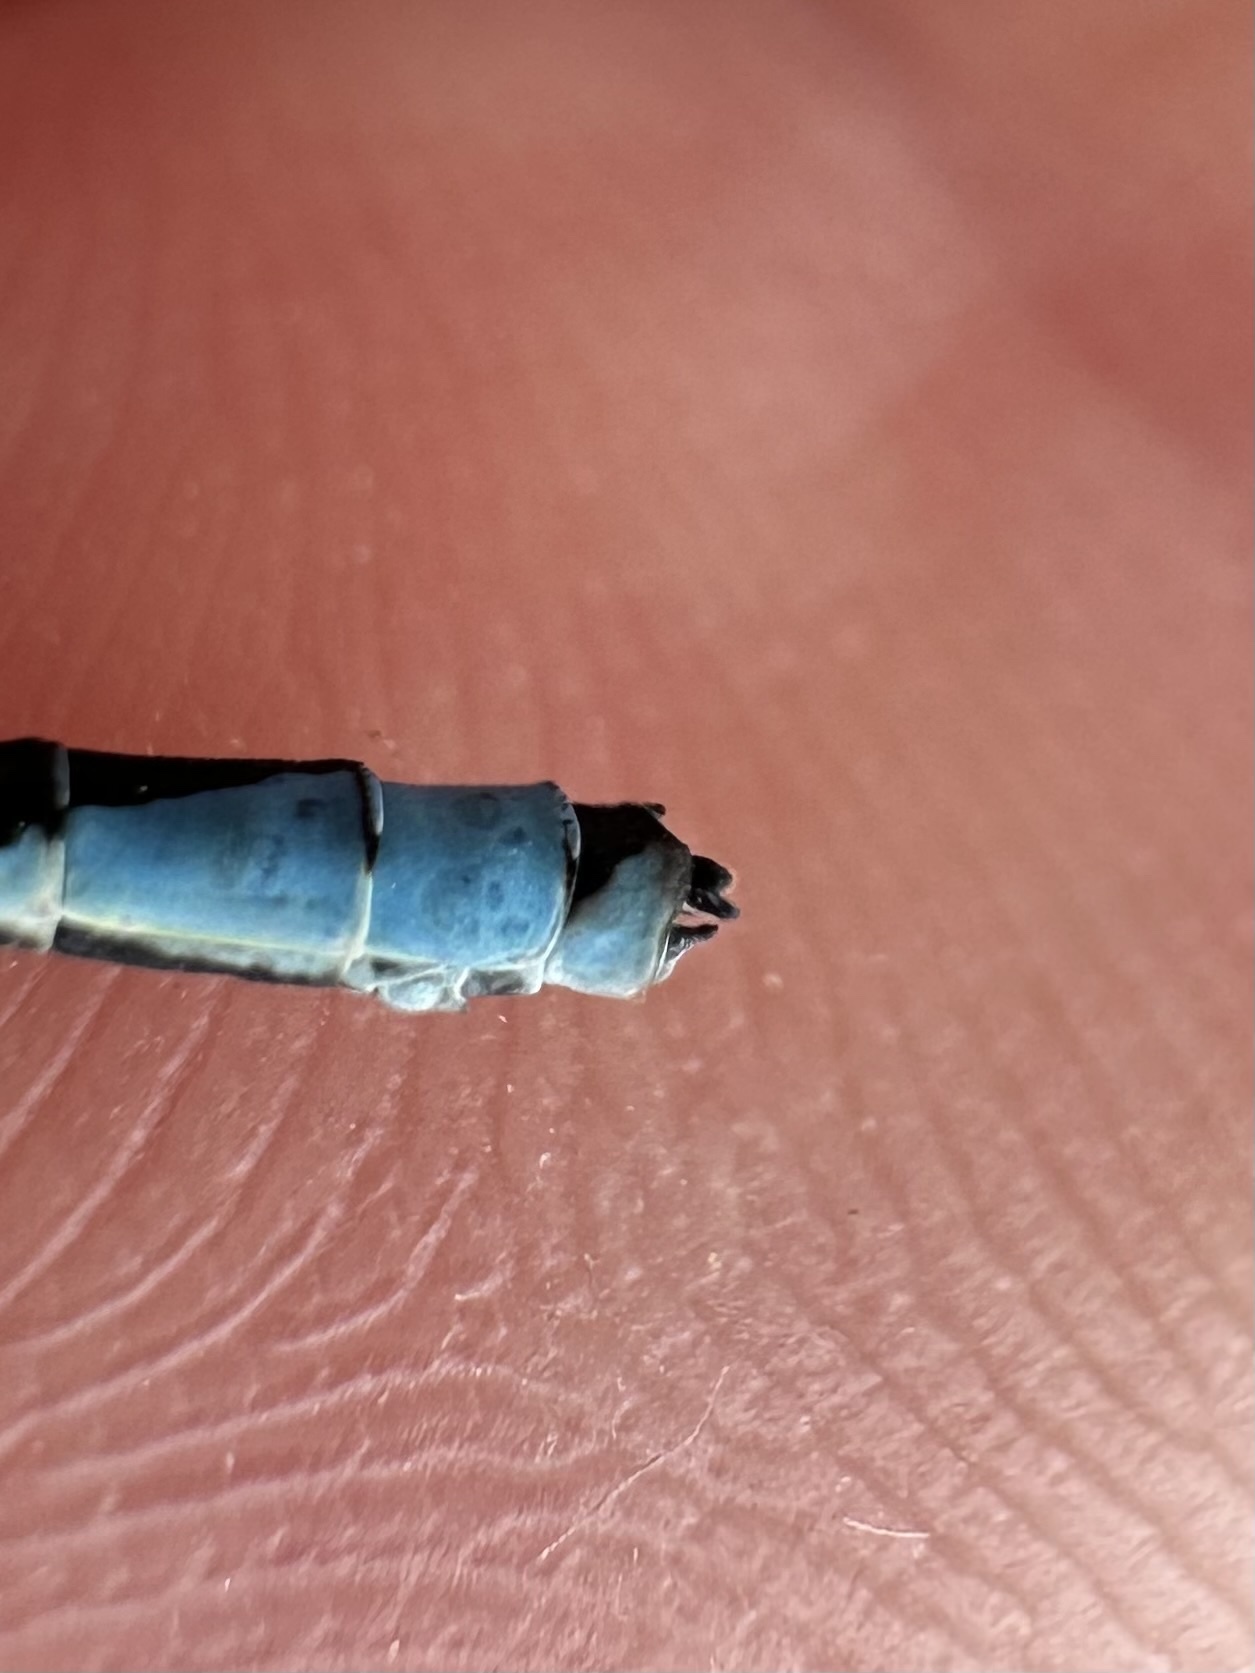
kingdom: Animalia
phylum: Arthropoda
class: Insecta
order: Odonata
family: Coenagrionidae
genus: Enallagma
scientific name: Enallagma exsulans
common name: Stream bluet
